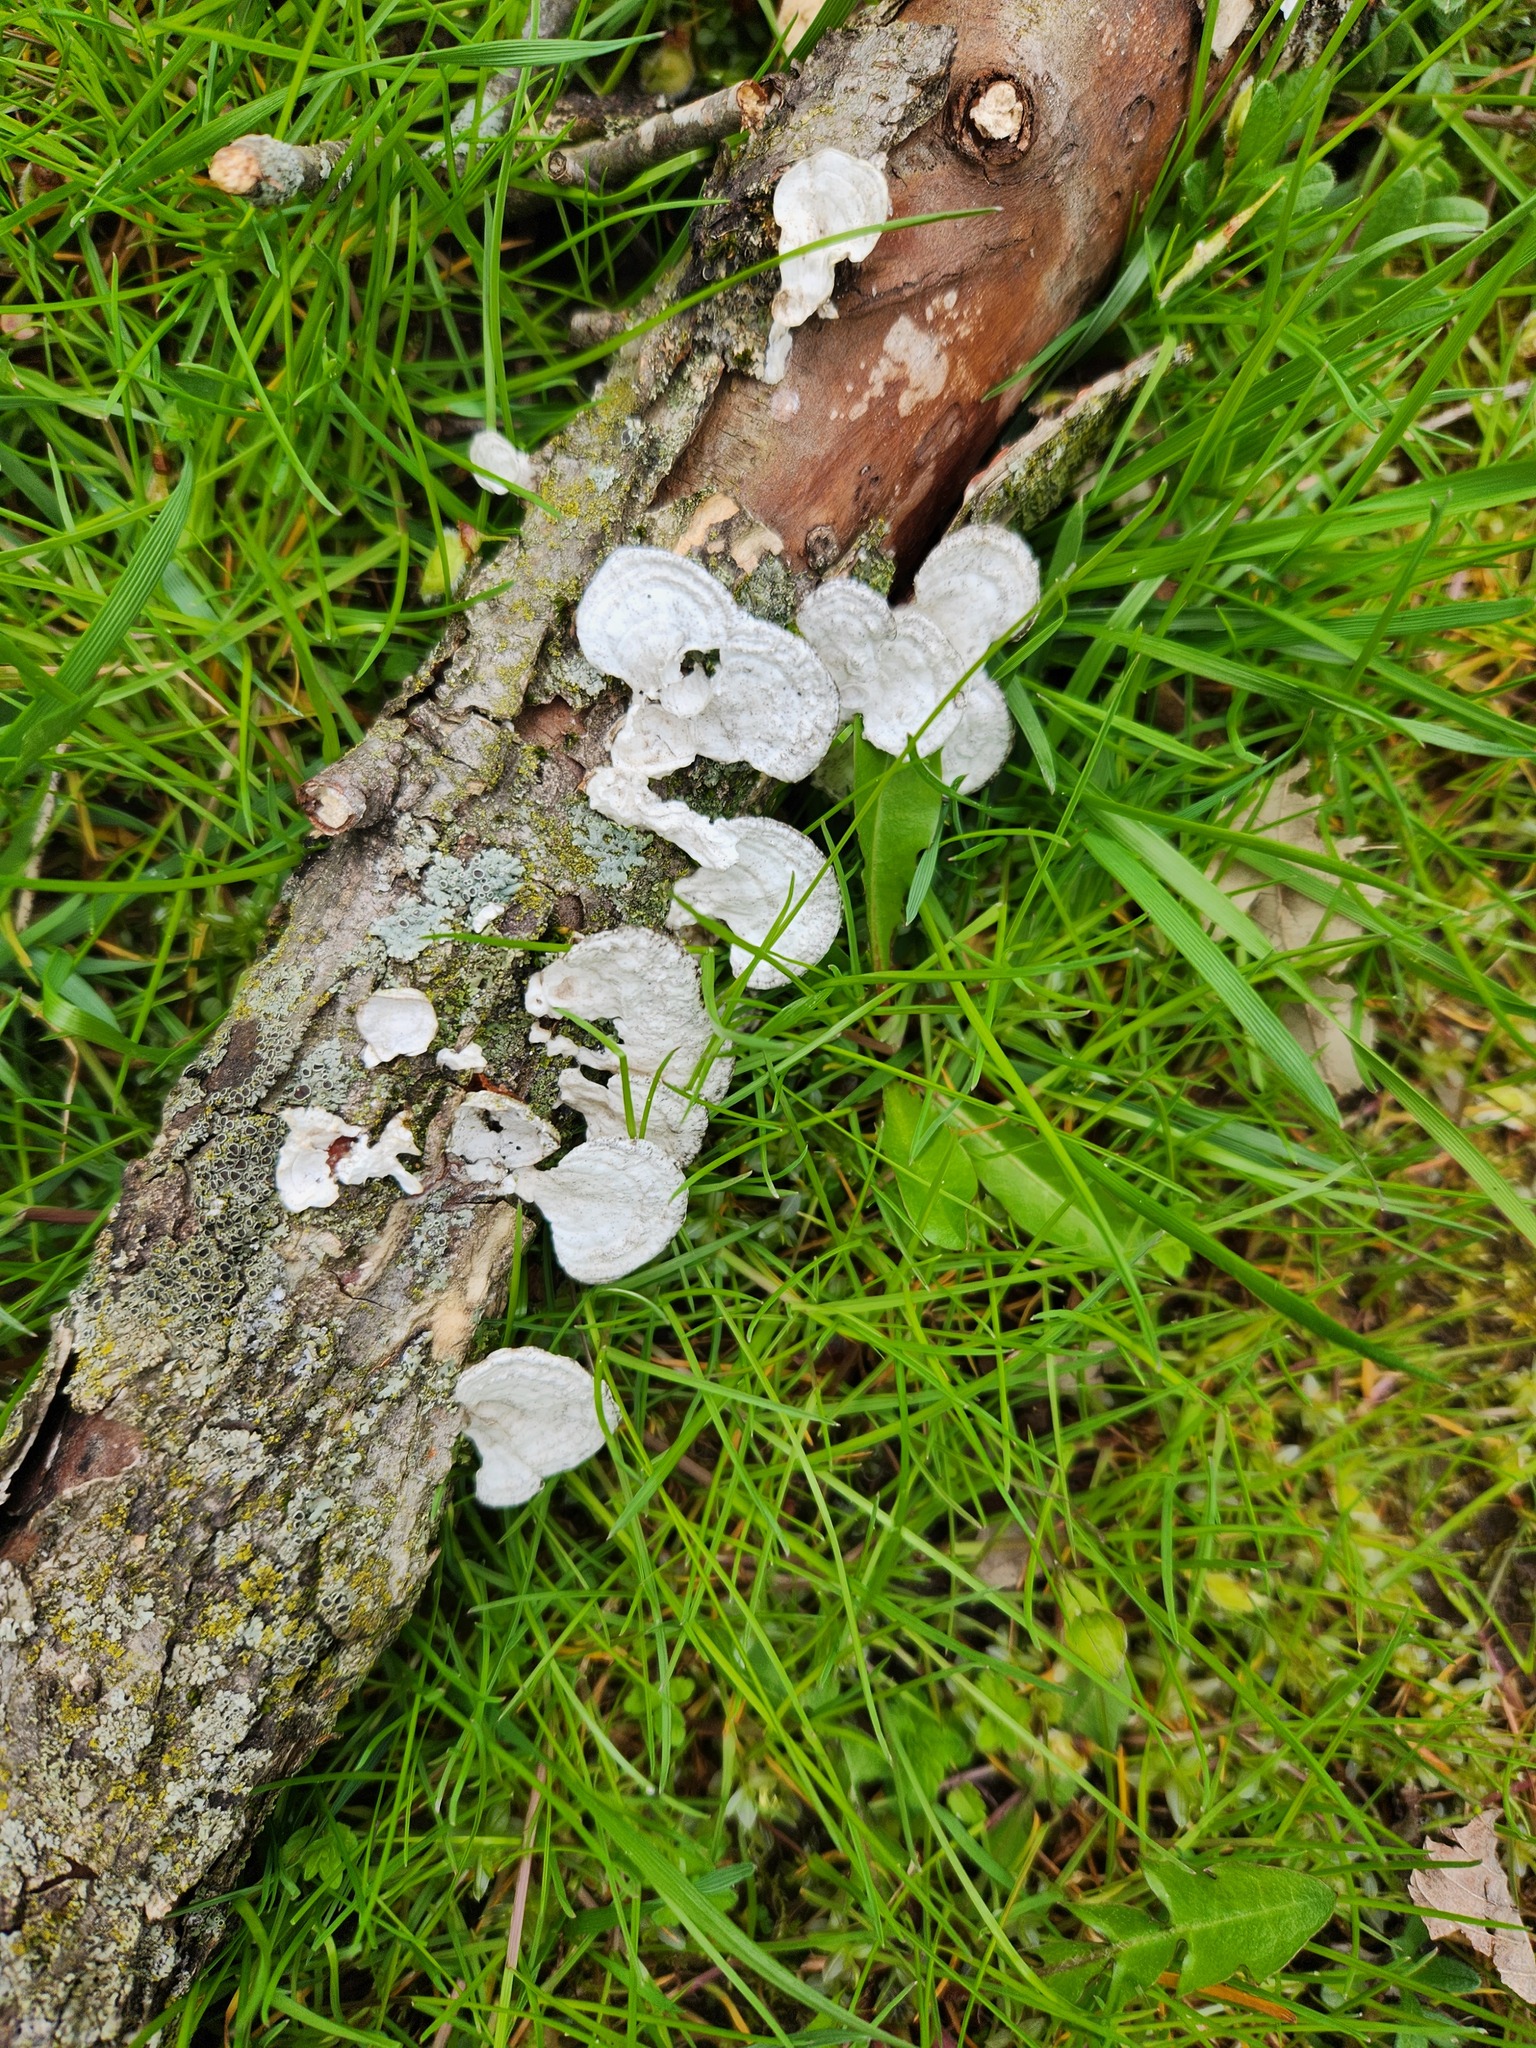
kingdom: Fungi
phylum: Basidiomycota
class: Agaricomycetes
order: Polyporales
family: Polyporaceae
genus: Poronidulus
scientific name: Poronidulus conchifer
